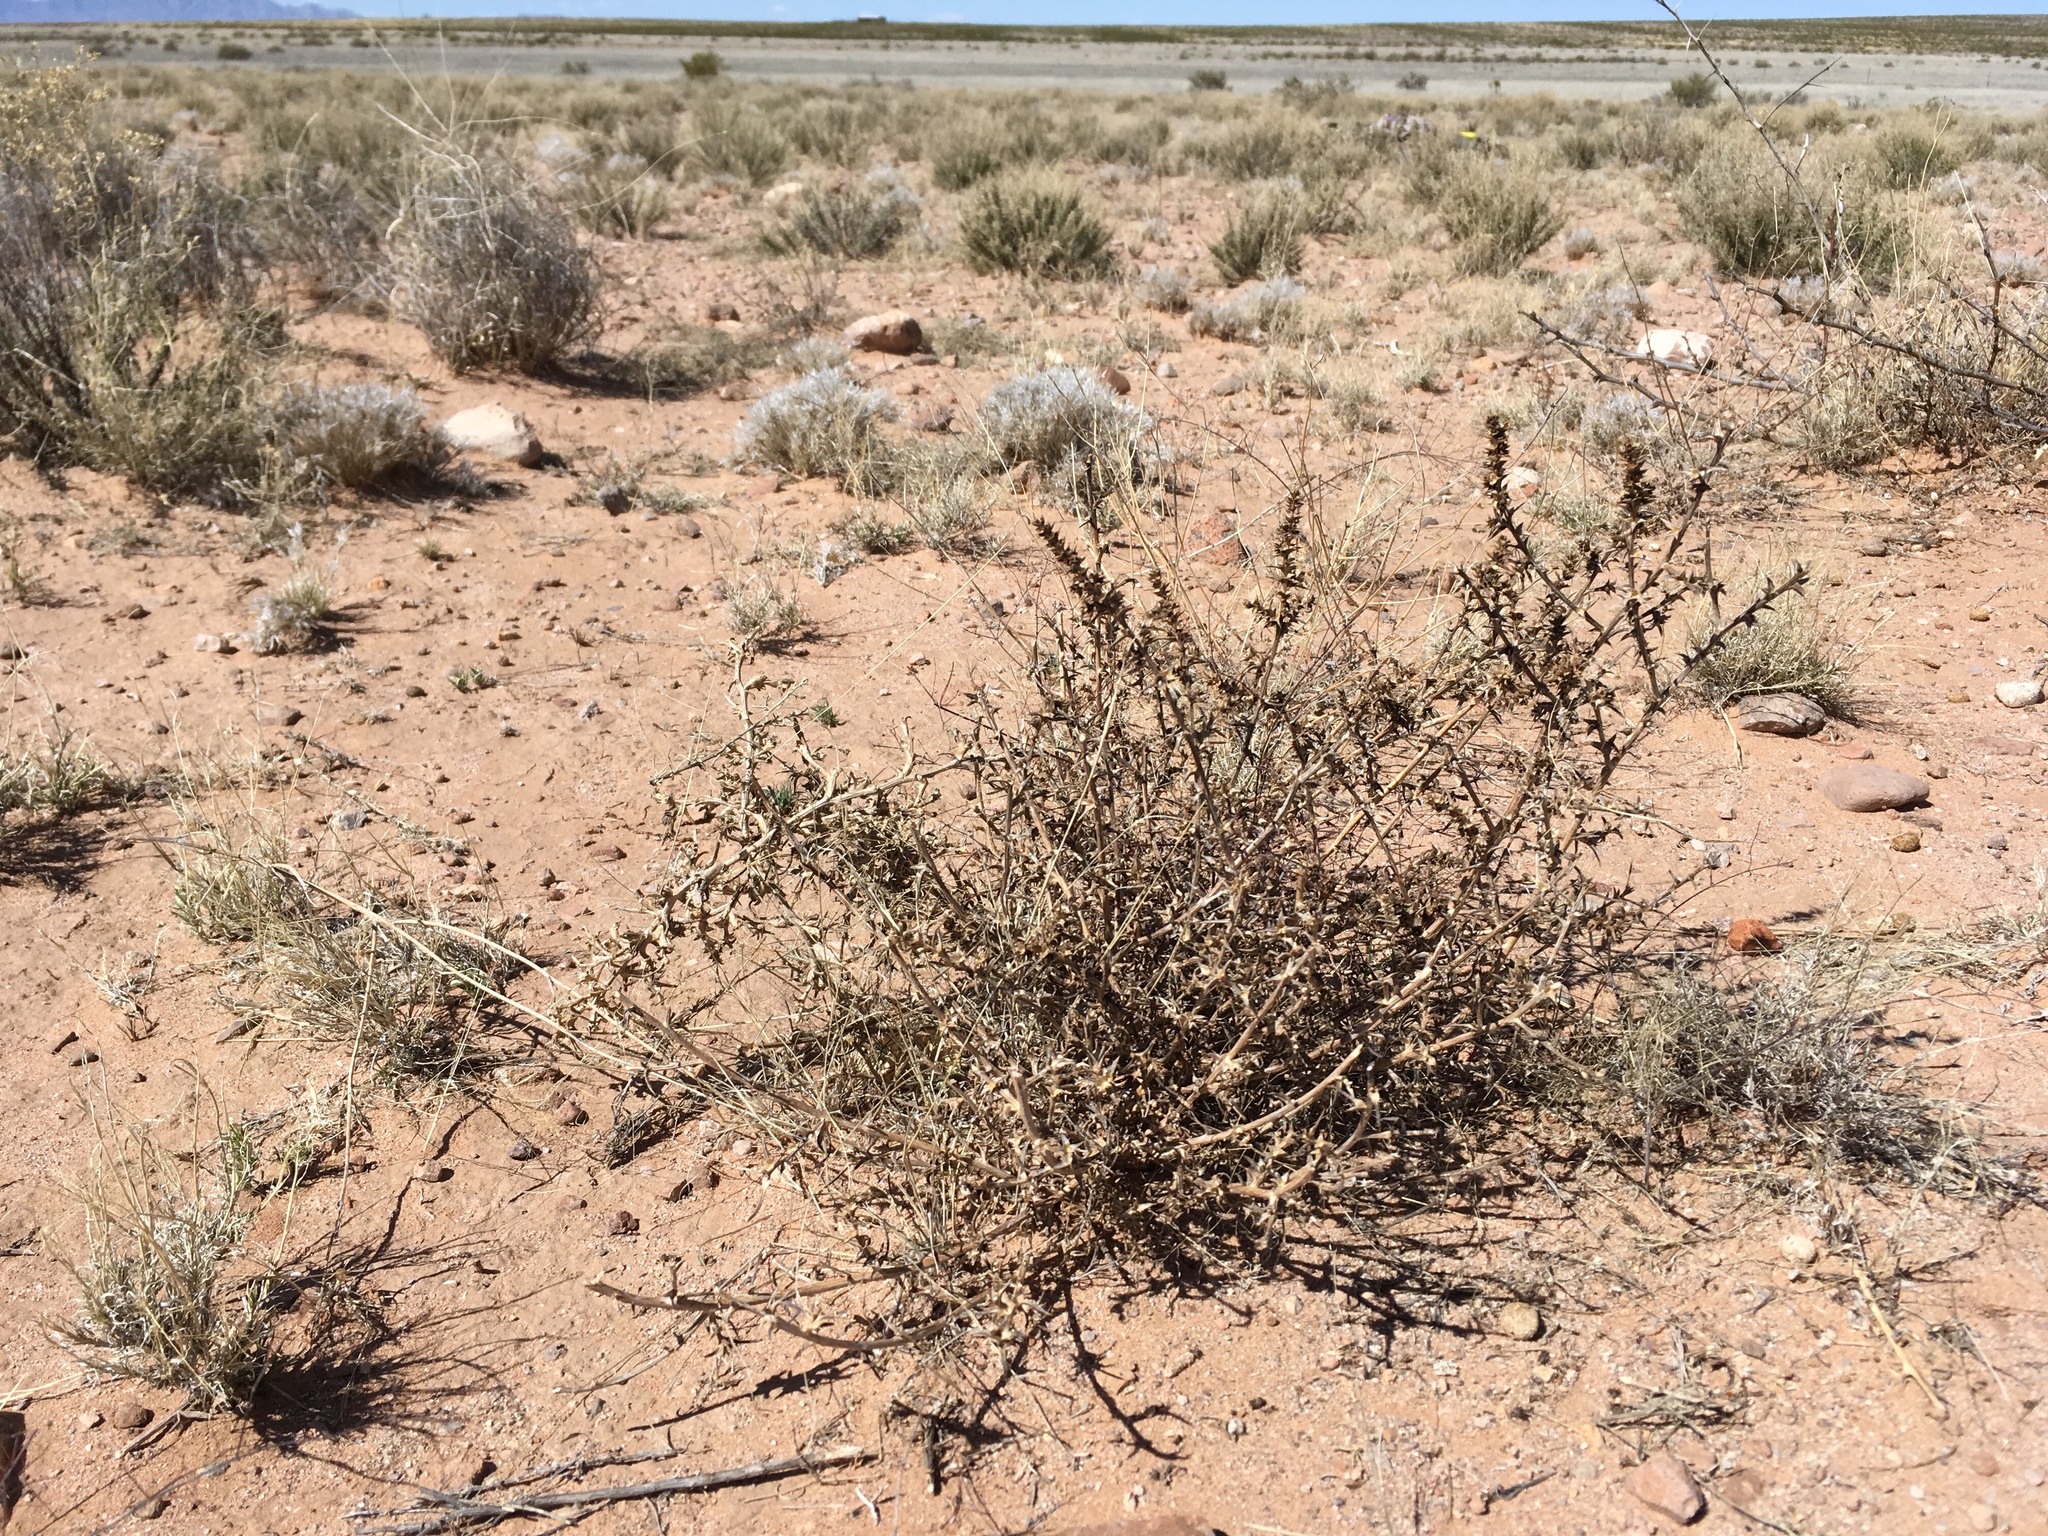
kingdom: Plantae
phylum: Tracheophyta
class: Magnoliopsida
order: Caryophyllales
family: Amaranthaceae
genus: Salsola
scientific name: Salsola tragus
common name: Prickly russian thistle
